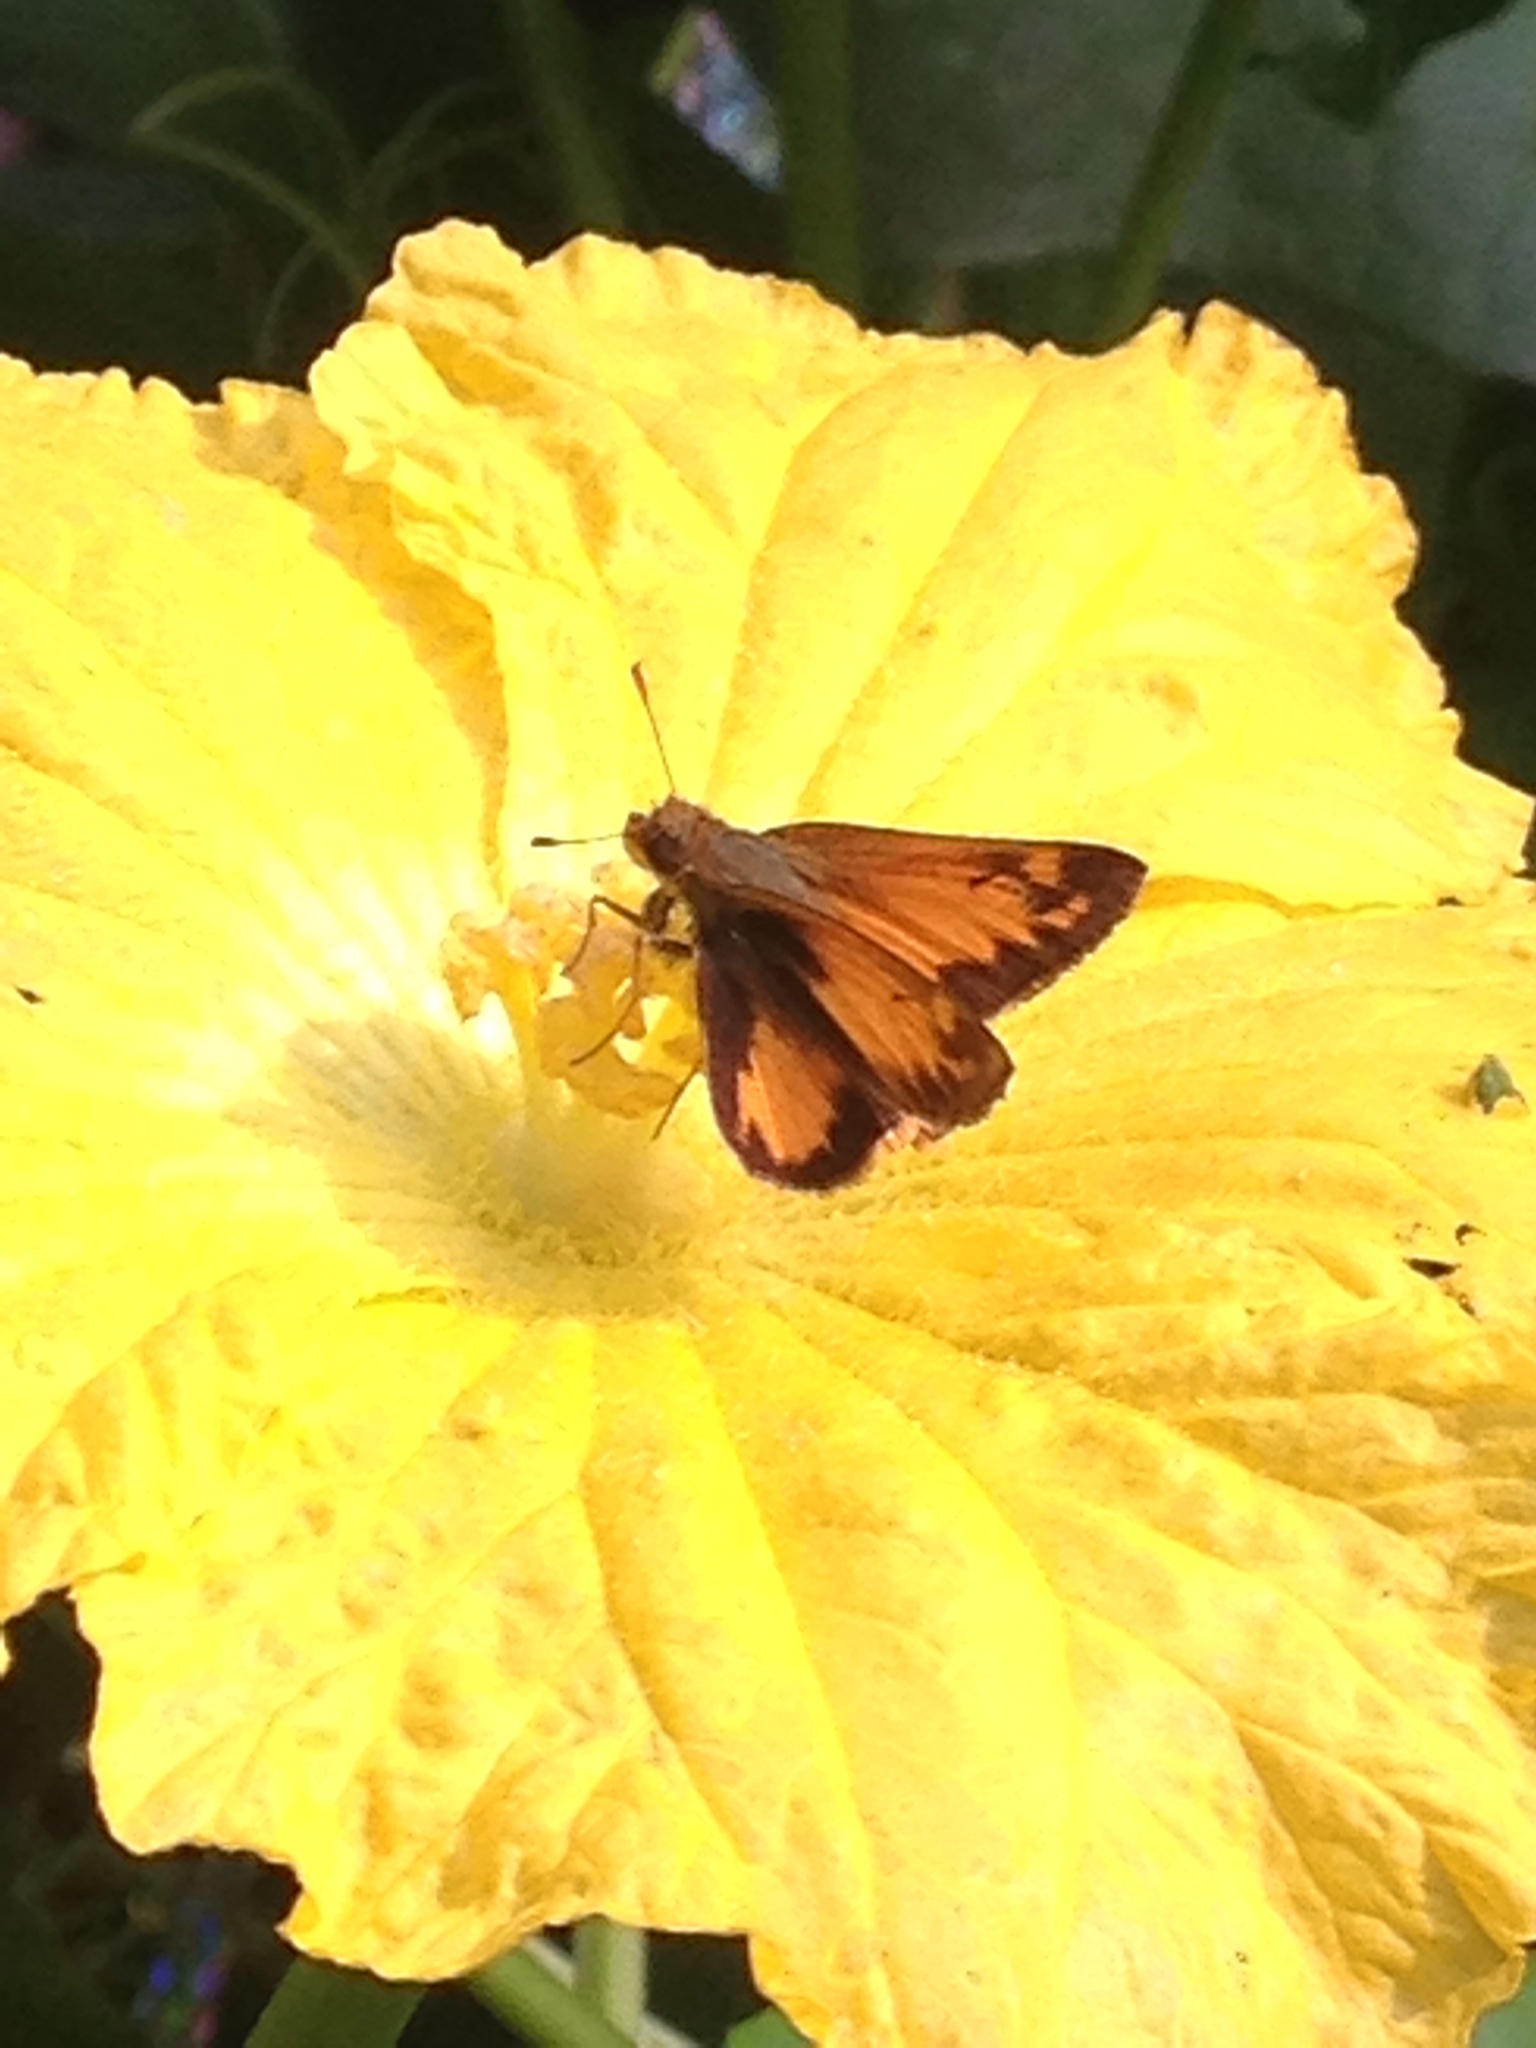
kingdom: Animalia
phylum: Arthropoda
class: Insecta
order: Lepidoptera
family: Hesperiidae
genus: Lon
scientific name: Lon zabulon
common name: Zabulon skipper
